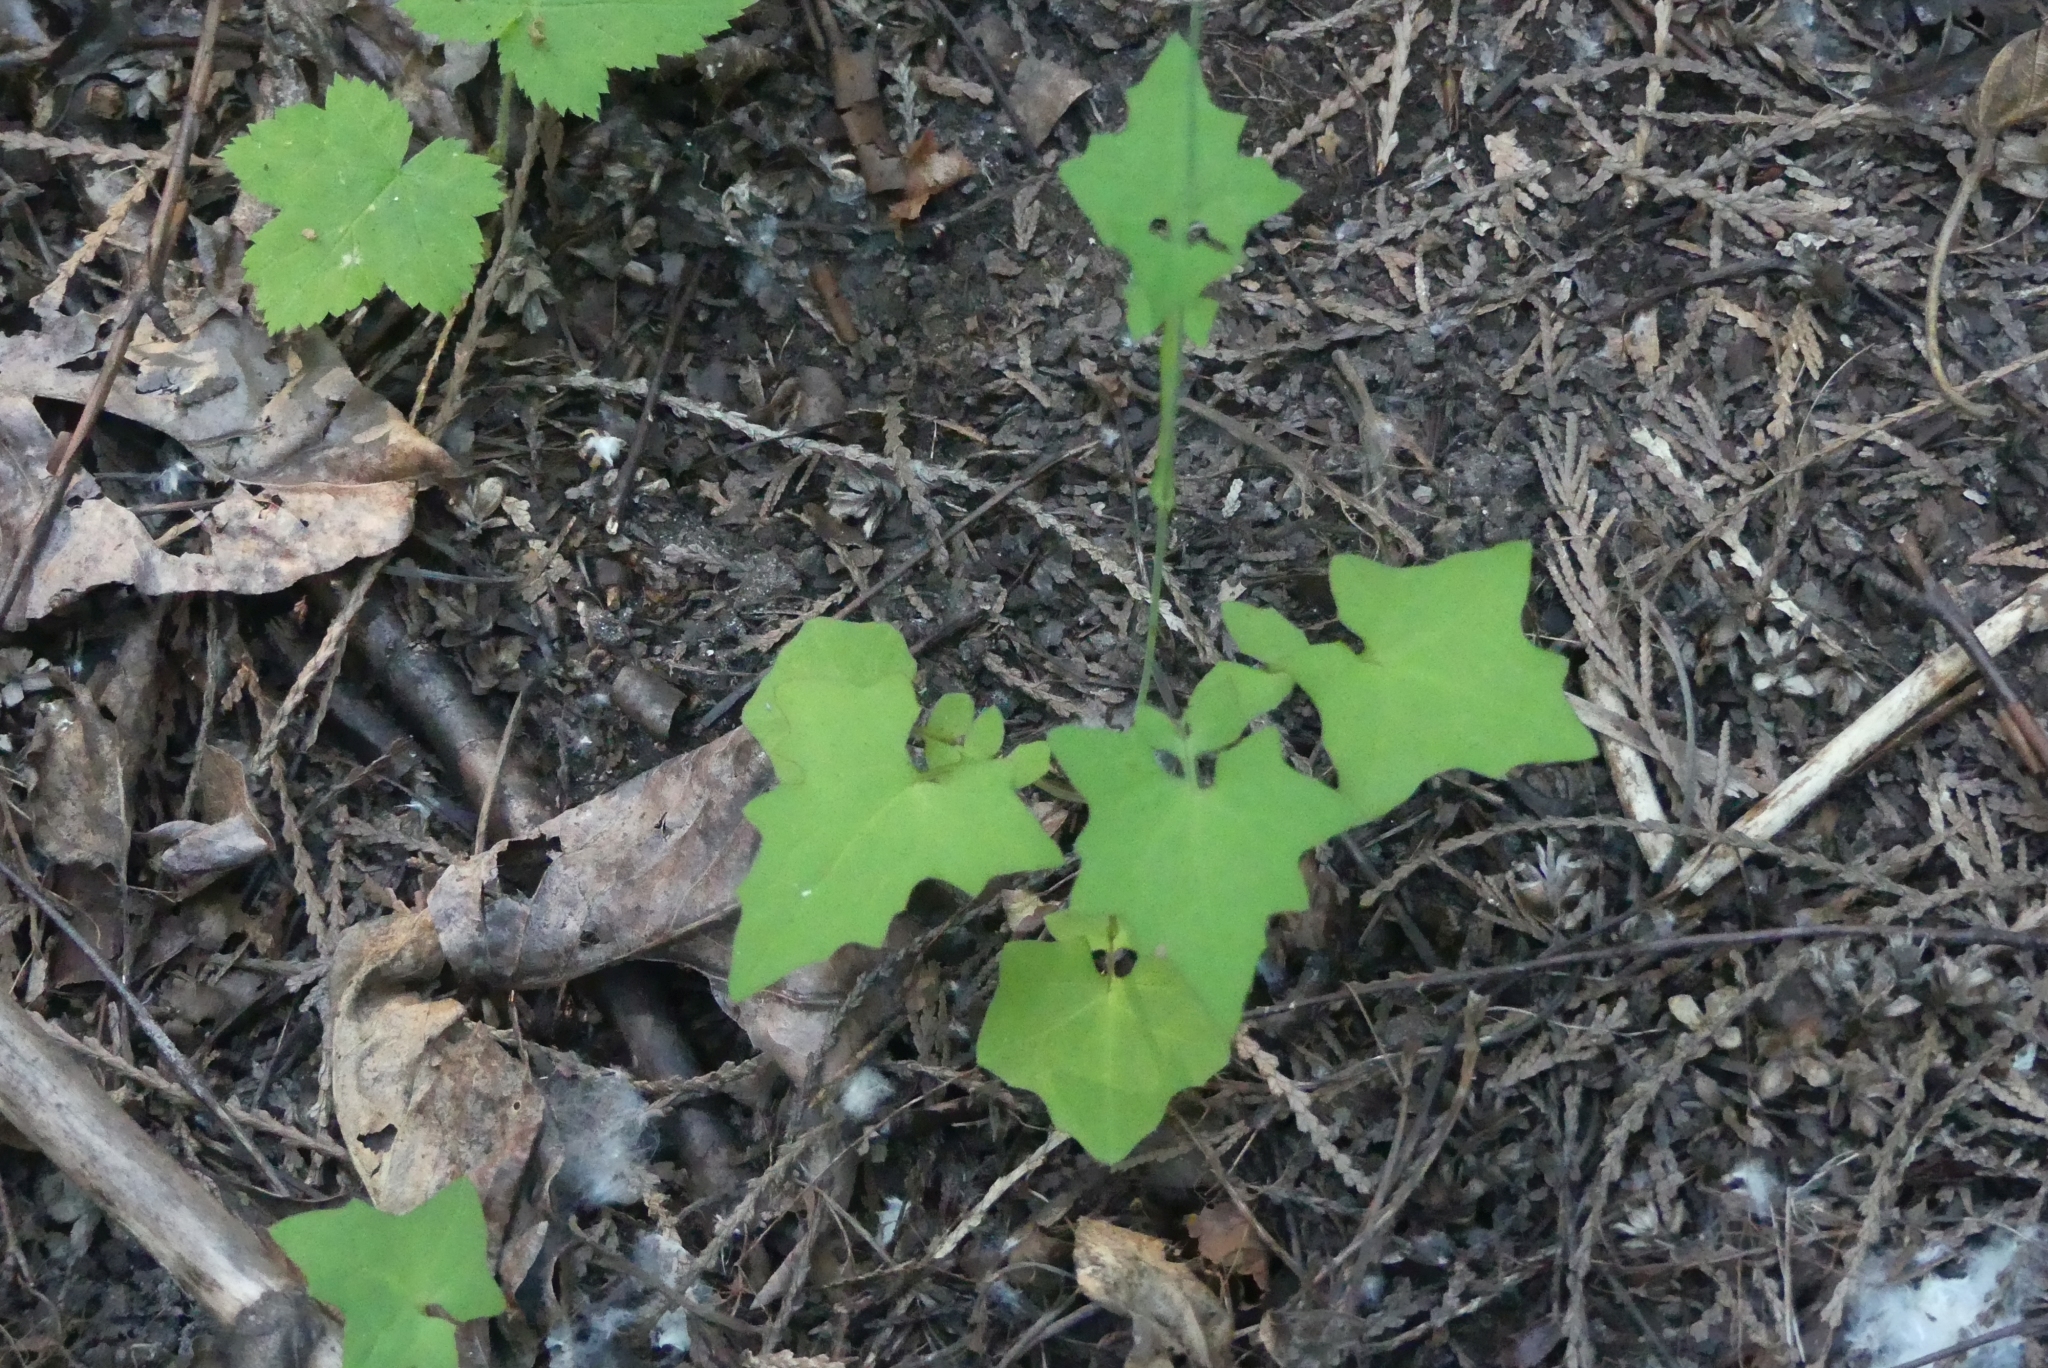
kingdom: Plantae
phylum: Tracheophyta
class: Magnoliopsida
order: Asterales
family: Asteraceae
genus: Mycelis
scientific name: Mycelis muralis
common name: Wall lettuce
